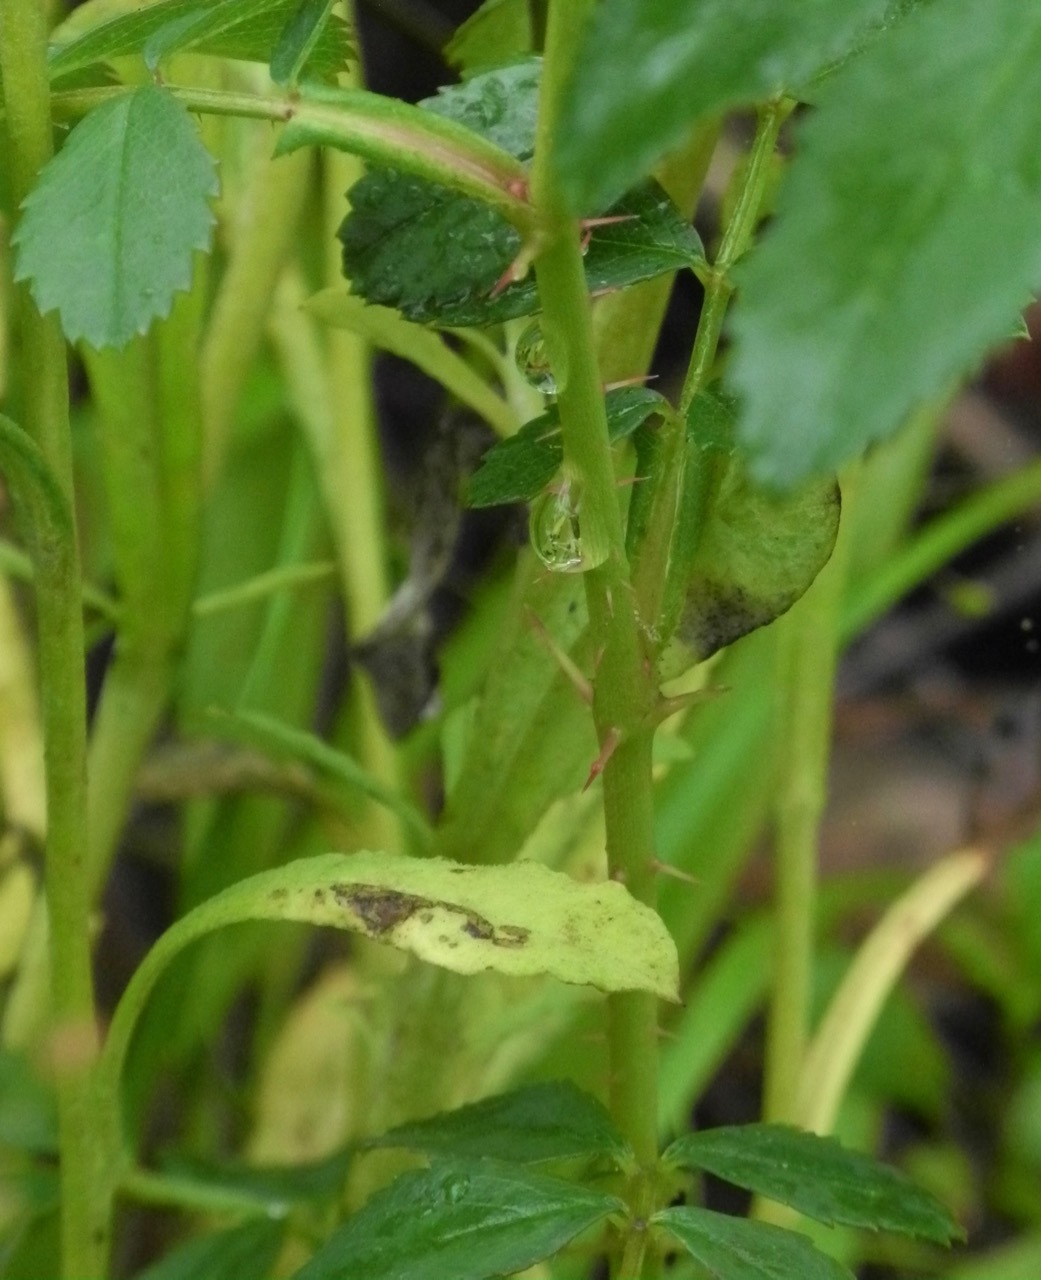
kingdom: Plantae
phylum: Tracheophyta
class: Magnoliopsida
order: Rosales
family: Rosaceae
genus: Rosa
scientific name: Rosa carolina
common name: Pasture rose
